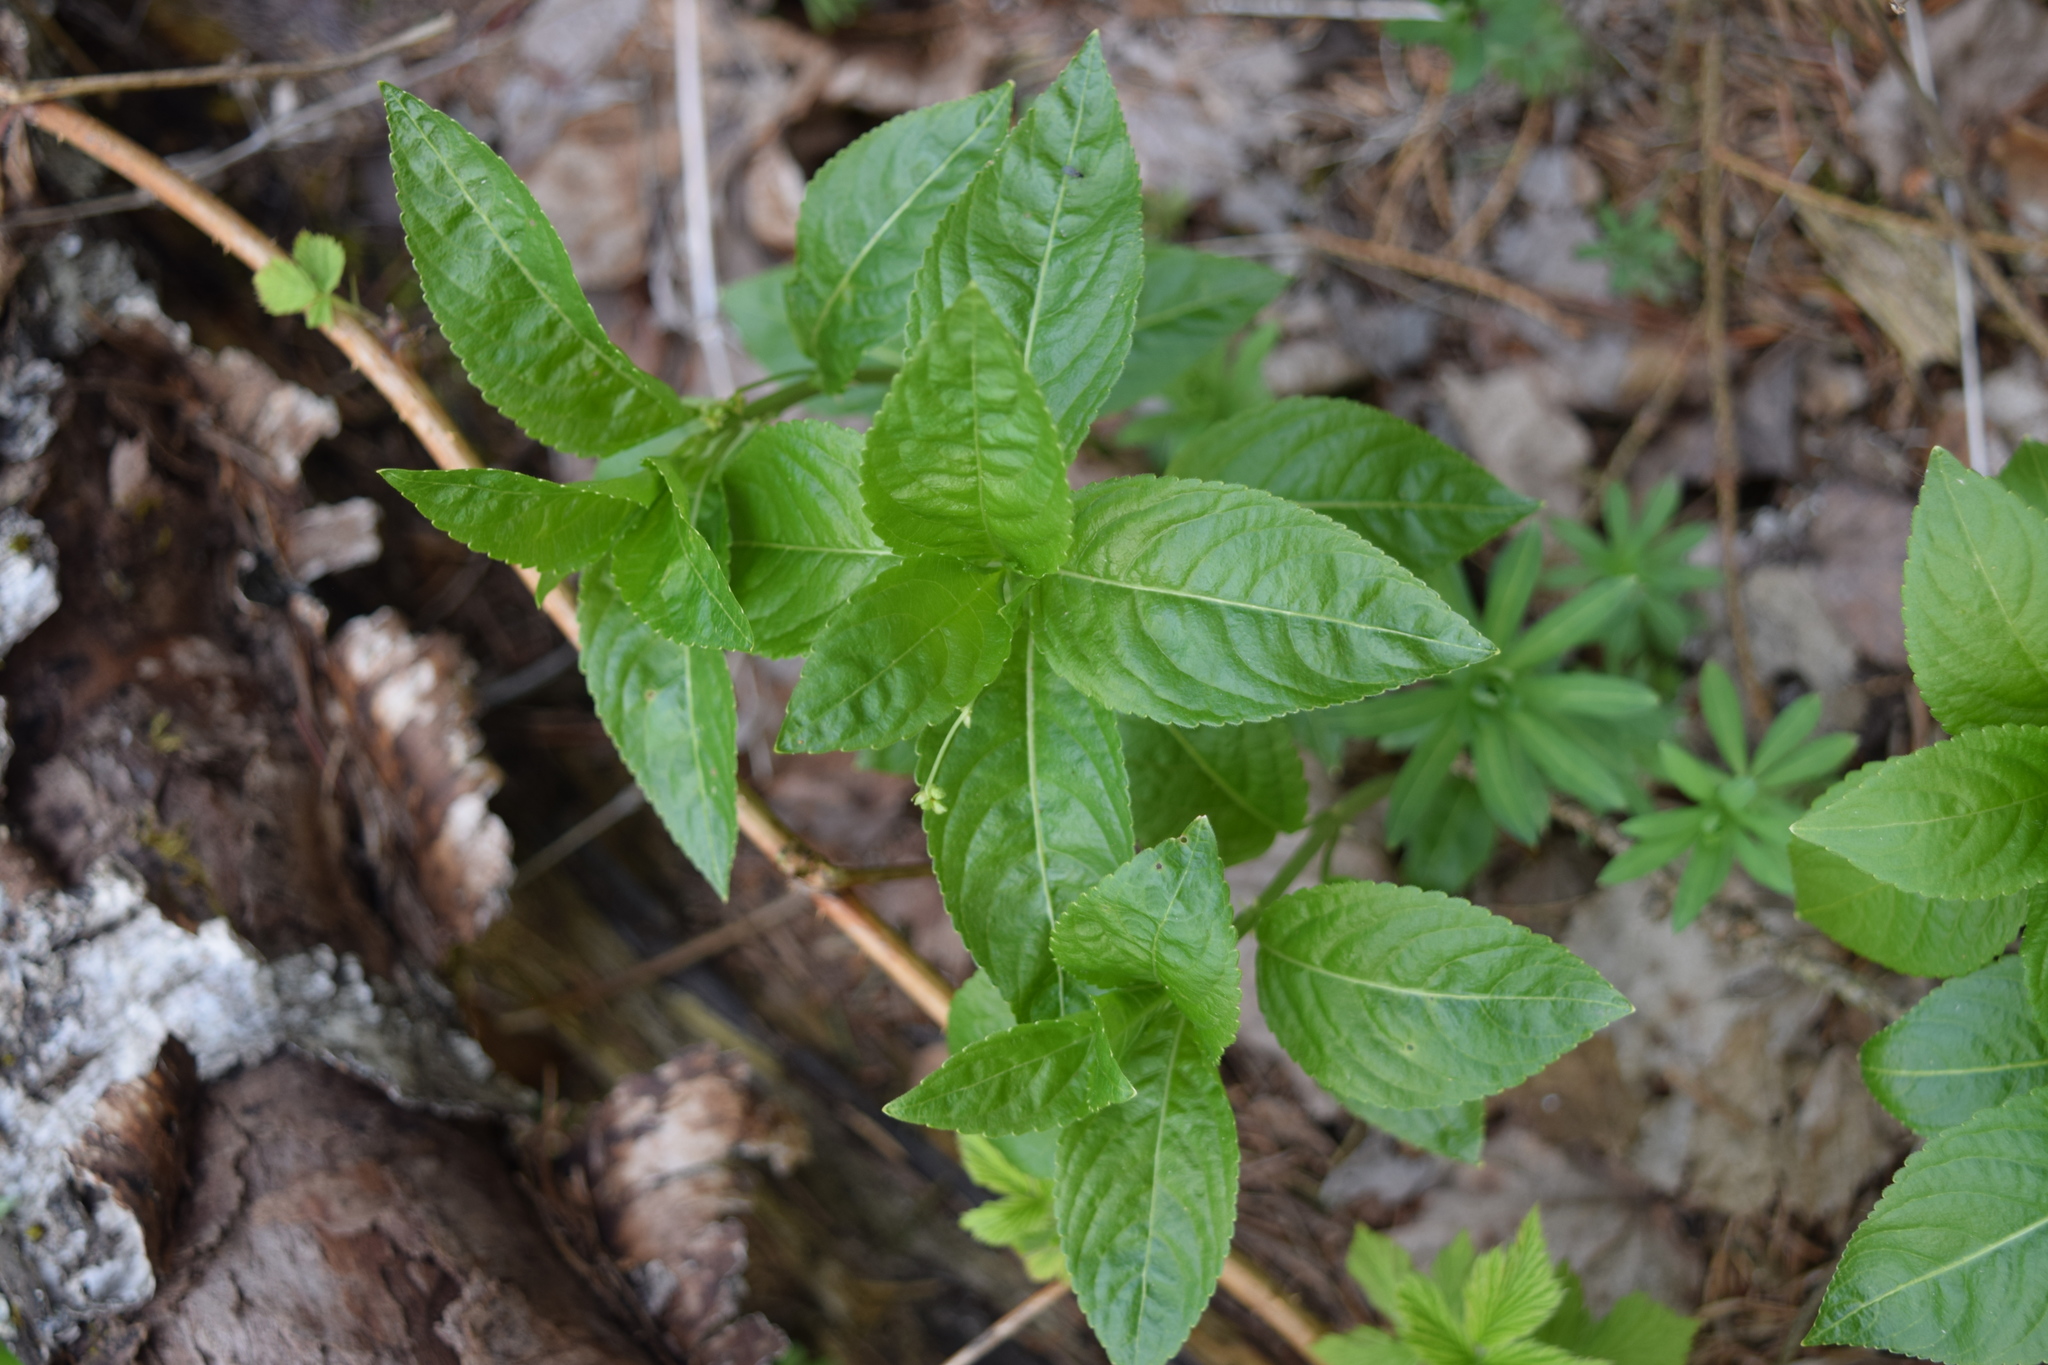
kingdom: Plantae
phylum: Tracheophyta
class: Magnoliopsida
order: Malpighiales
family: Euphorbiaceae
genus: Mercurialis
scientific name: Mercurialis perennis
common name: Dog mercury
